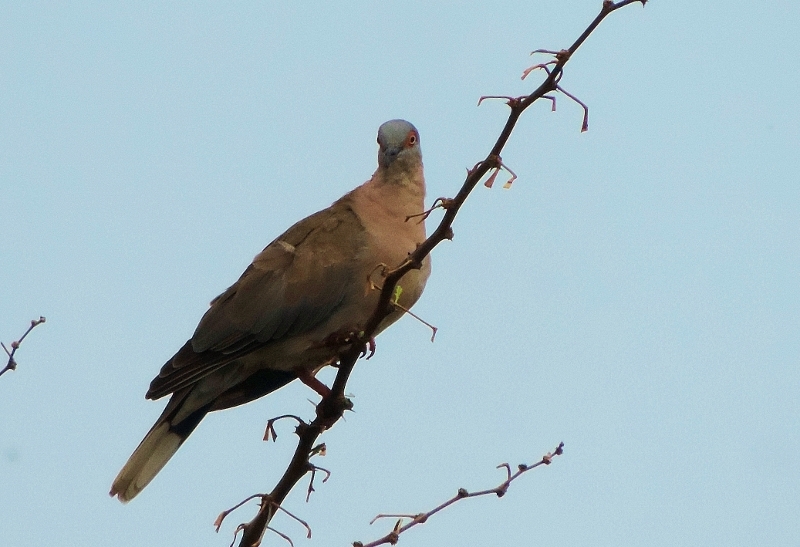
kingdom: Animalia
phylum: Chordata
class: Aves
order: Columbiformes
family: Columbidae
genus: Streptopelia
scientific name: Streptopelia decipiens
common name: Mourning collared dove
